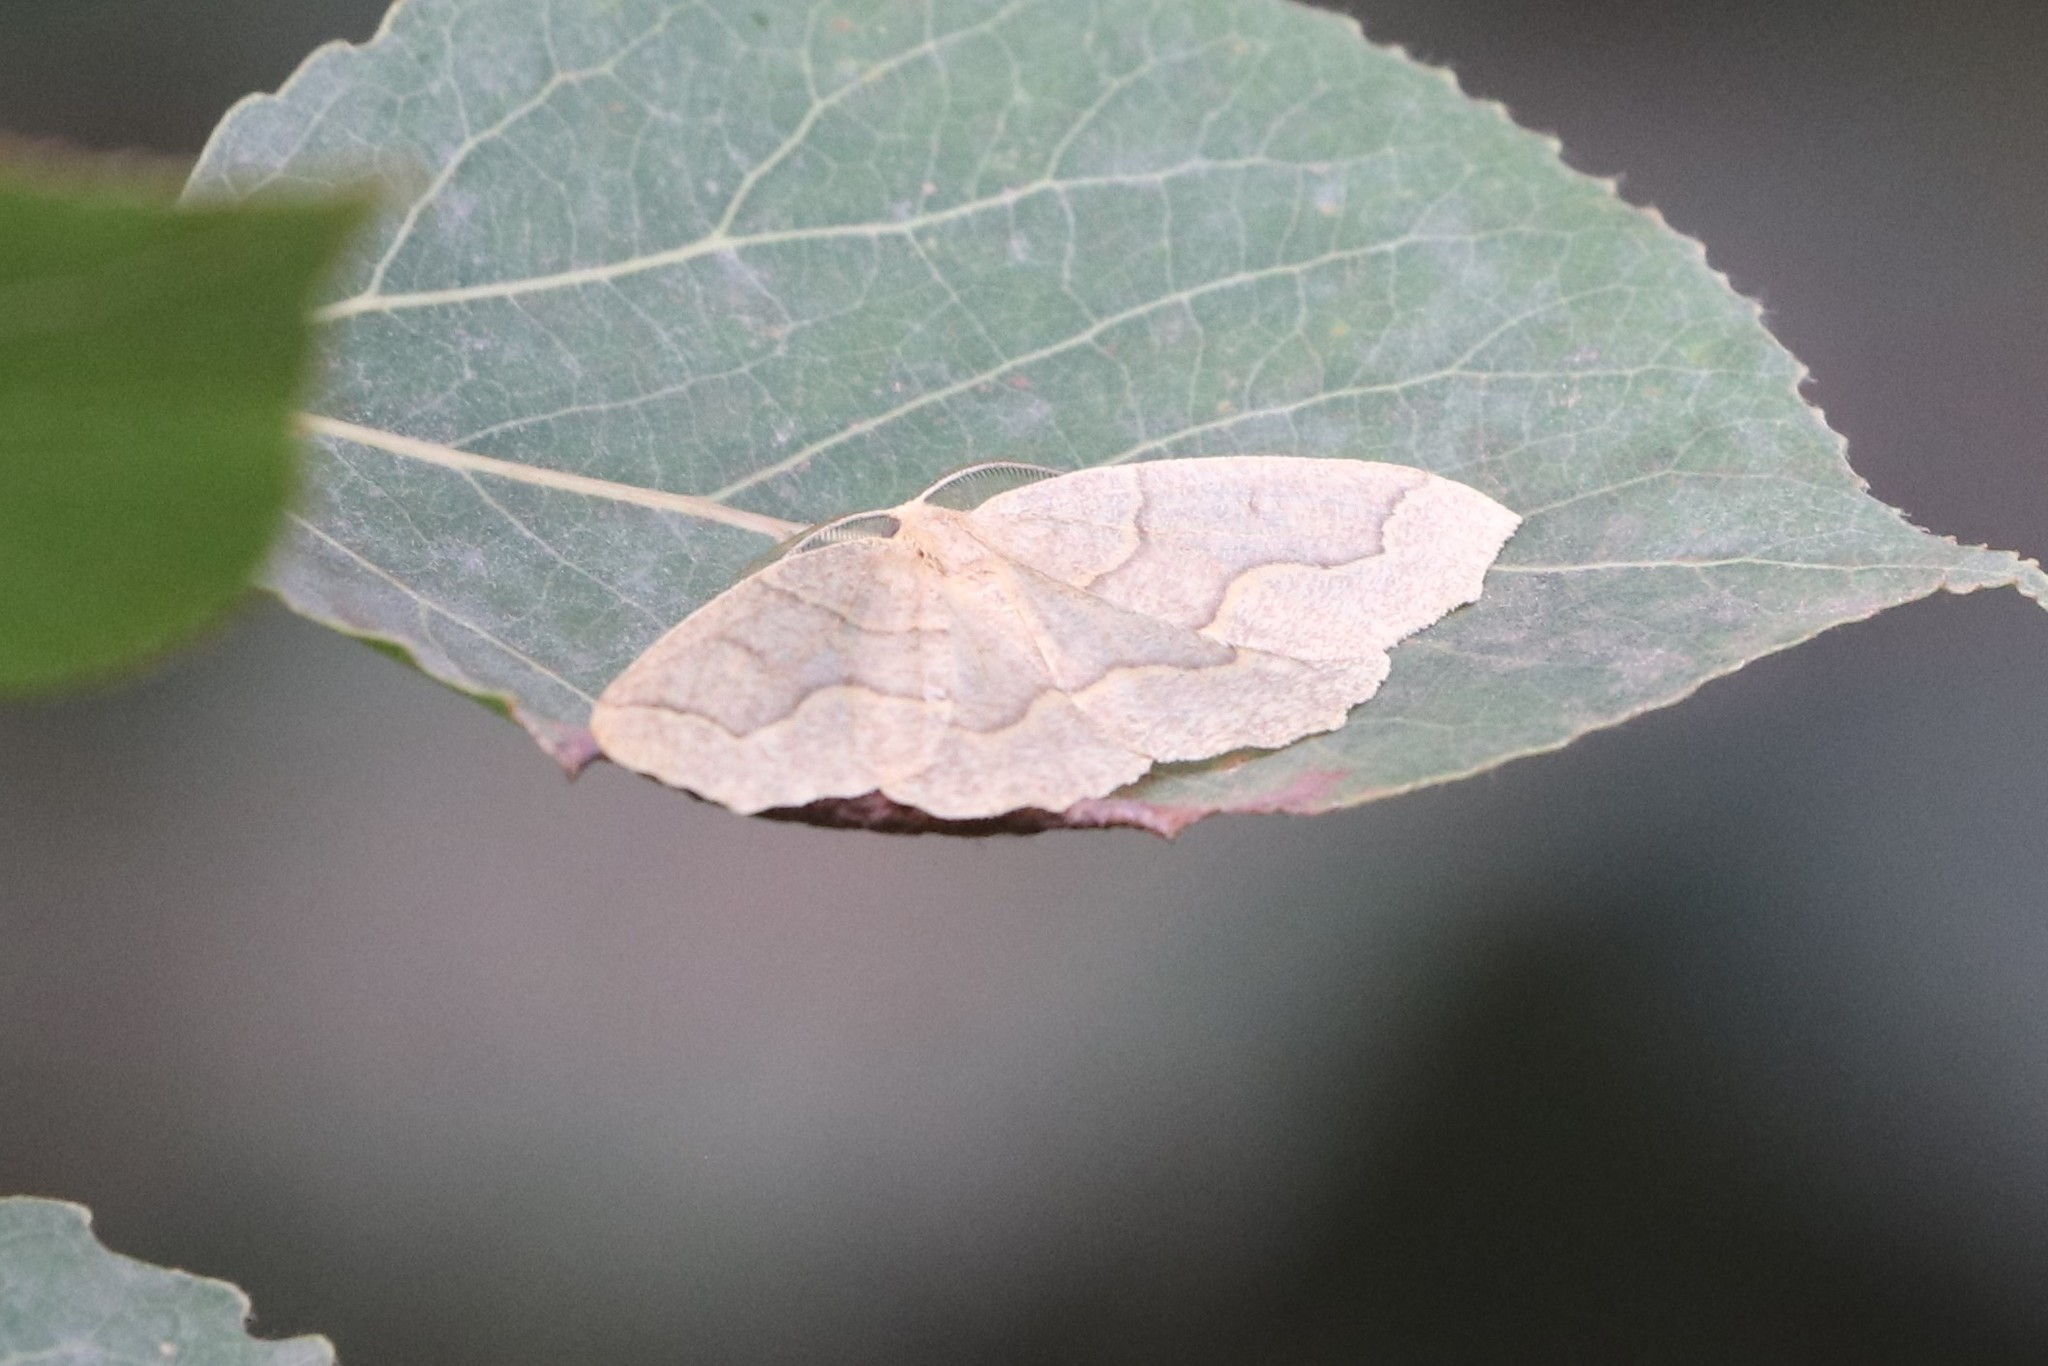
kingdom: Animalia
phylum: Arthropoda
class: Insecta
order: Lepidoptera
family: Geometridae
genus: Lambdina
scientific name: Lambdina fiscellaria
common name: Hemlock looper
